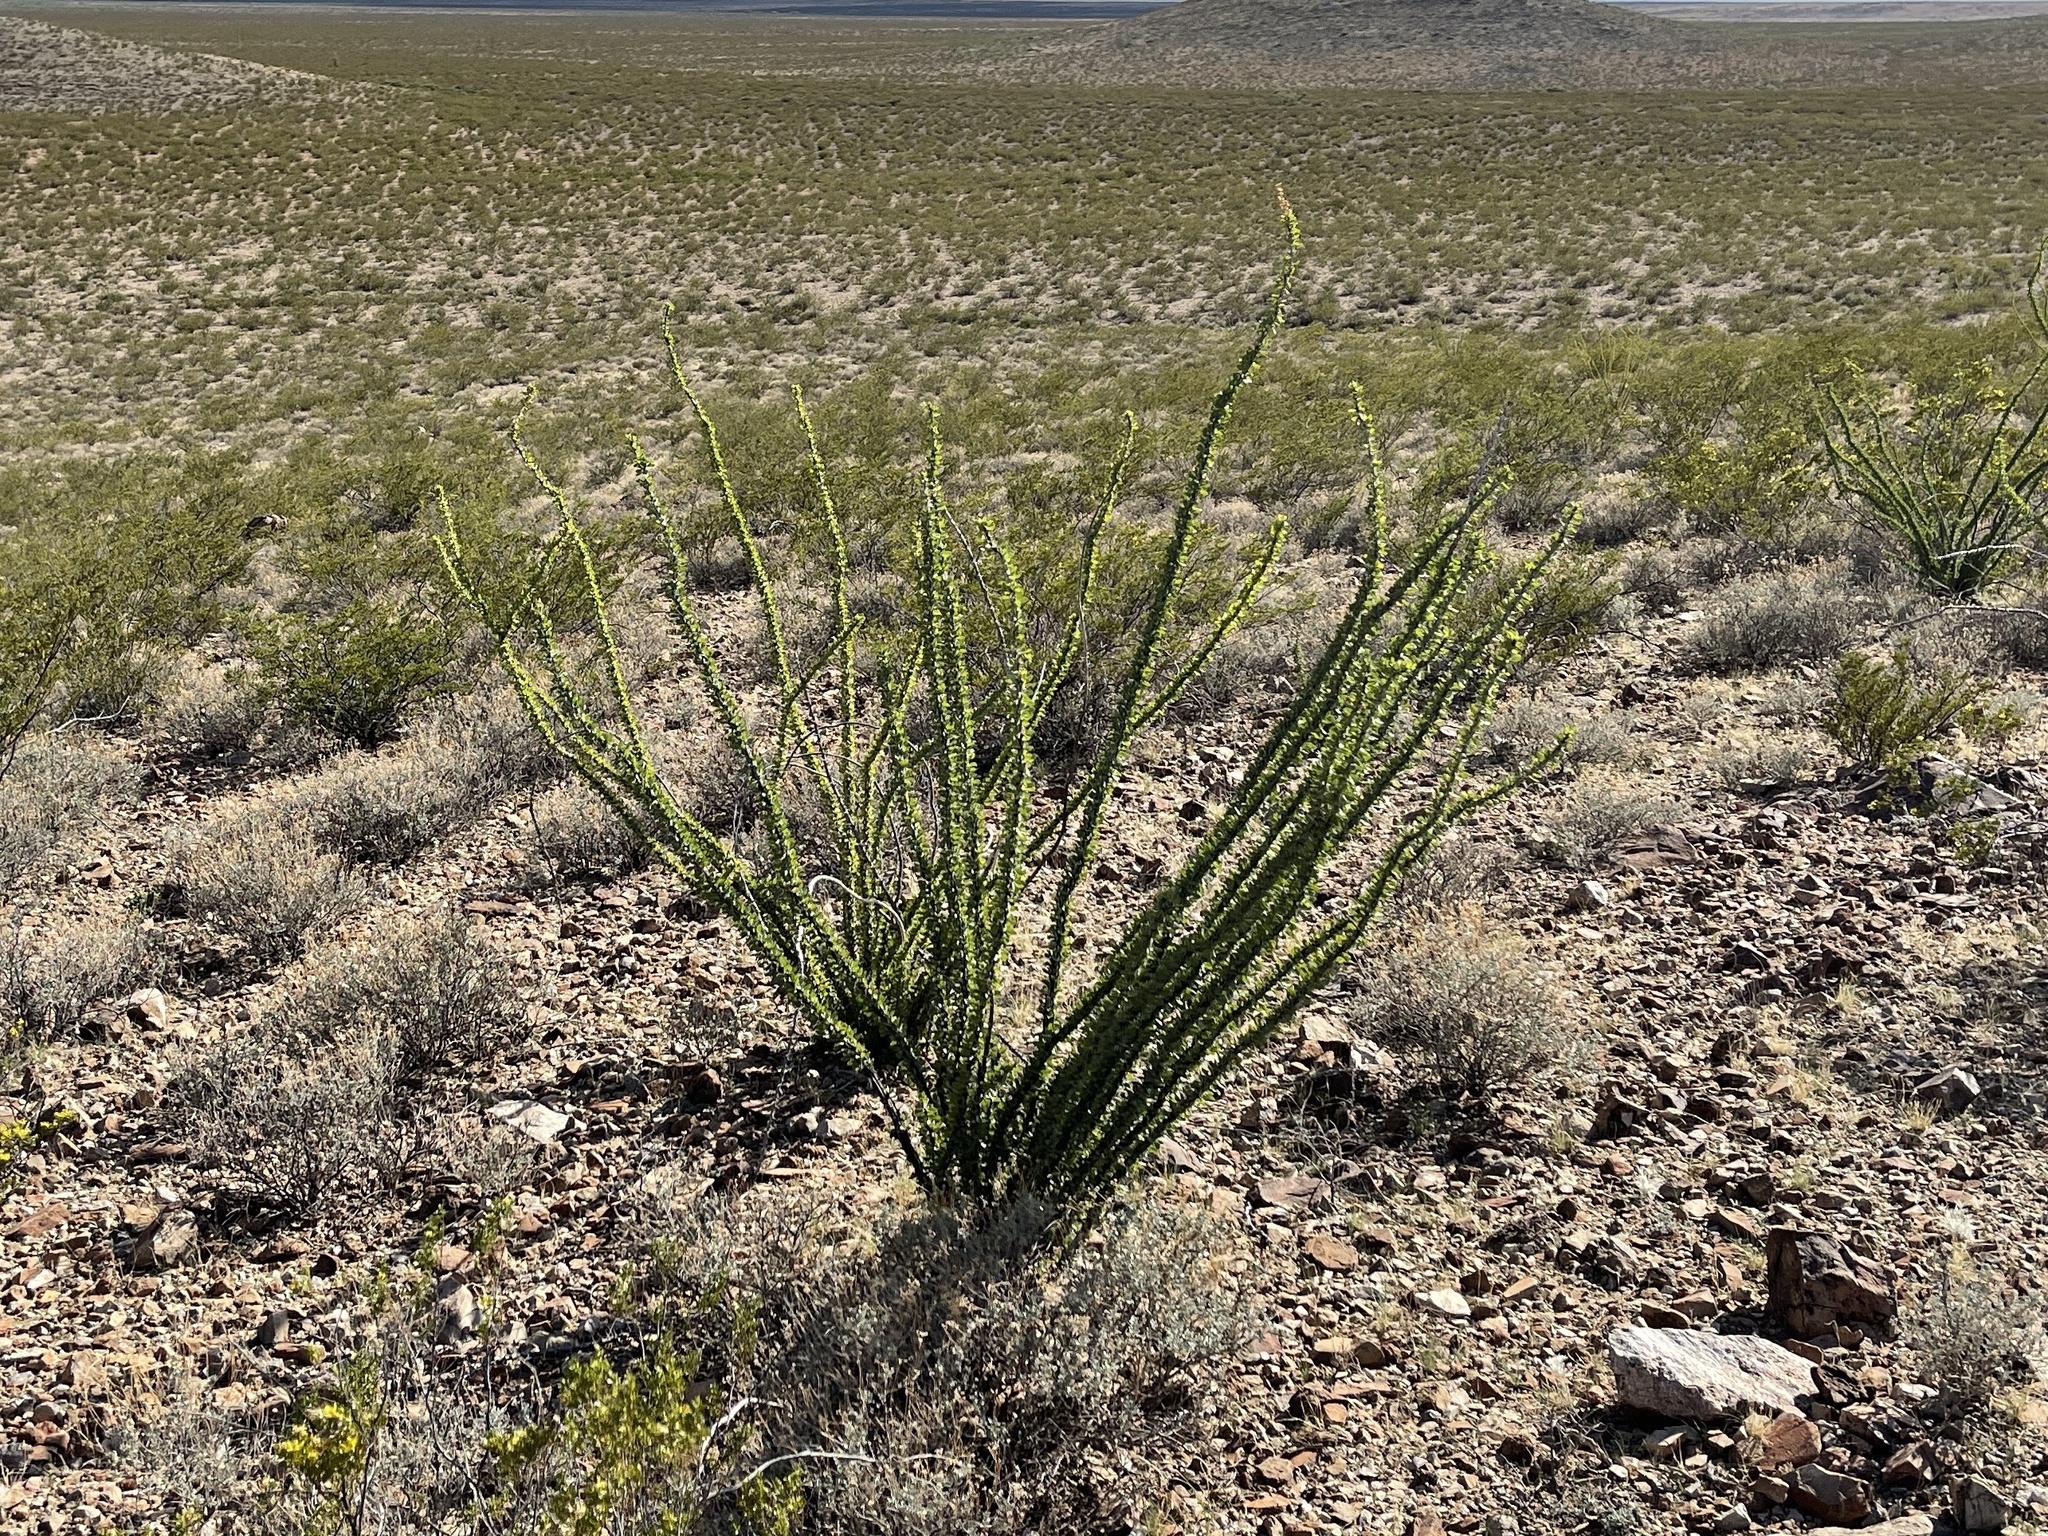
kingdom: Plantae
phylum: Tracheophyta
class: Magnoliopsida
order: Ericales
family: Fouquieriaceae
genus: Fouquieria
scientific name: Fouquieria splendens
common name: Vine-cactus
